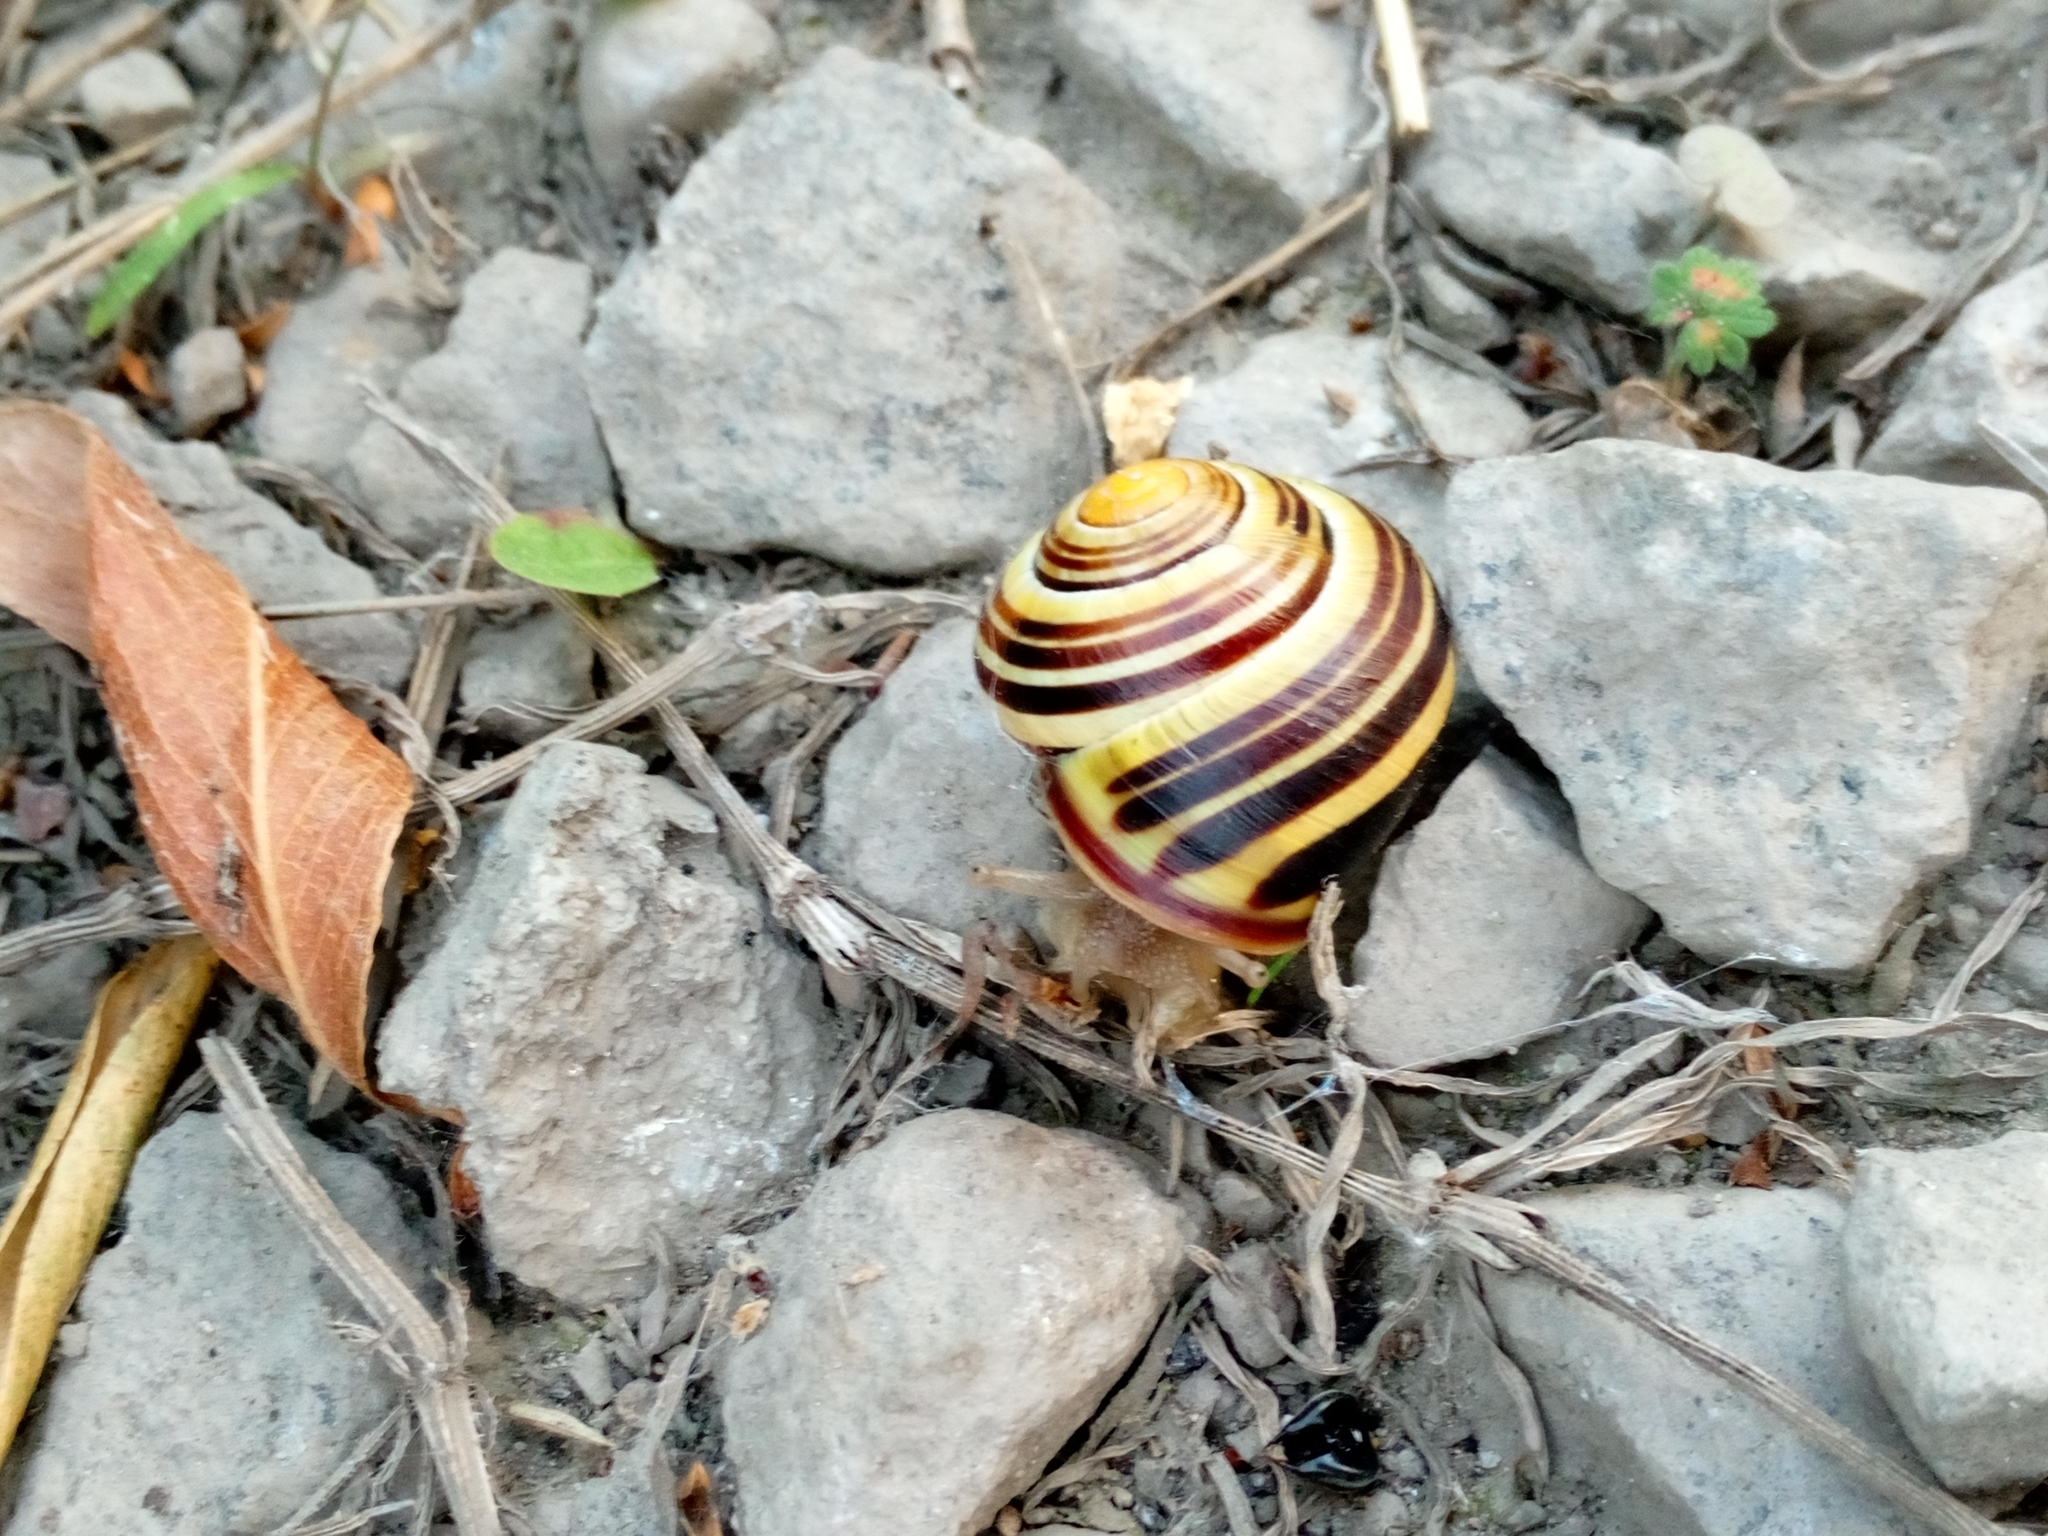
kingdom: Animalia
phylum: Mollusca
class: Gastropoda
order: Stylommatophora
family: Helicidae
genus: Cepaea
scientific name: Cepaea nemoralis
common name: Grovesnail
